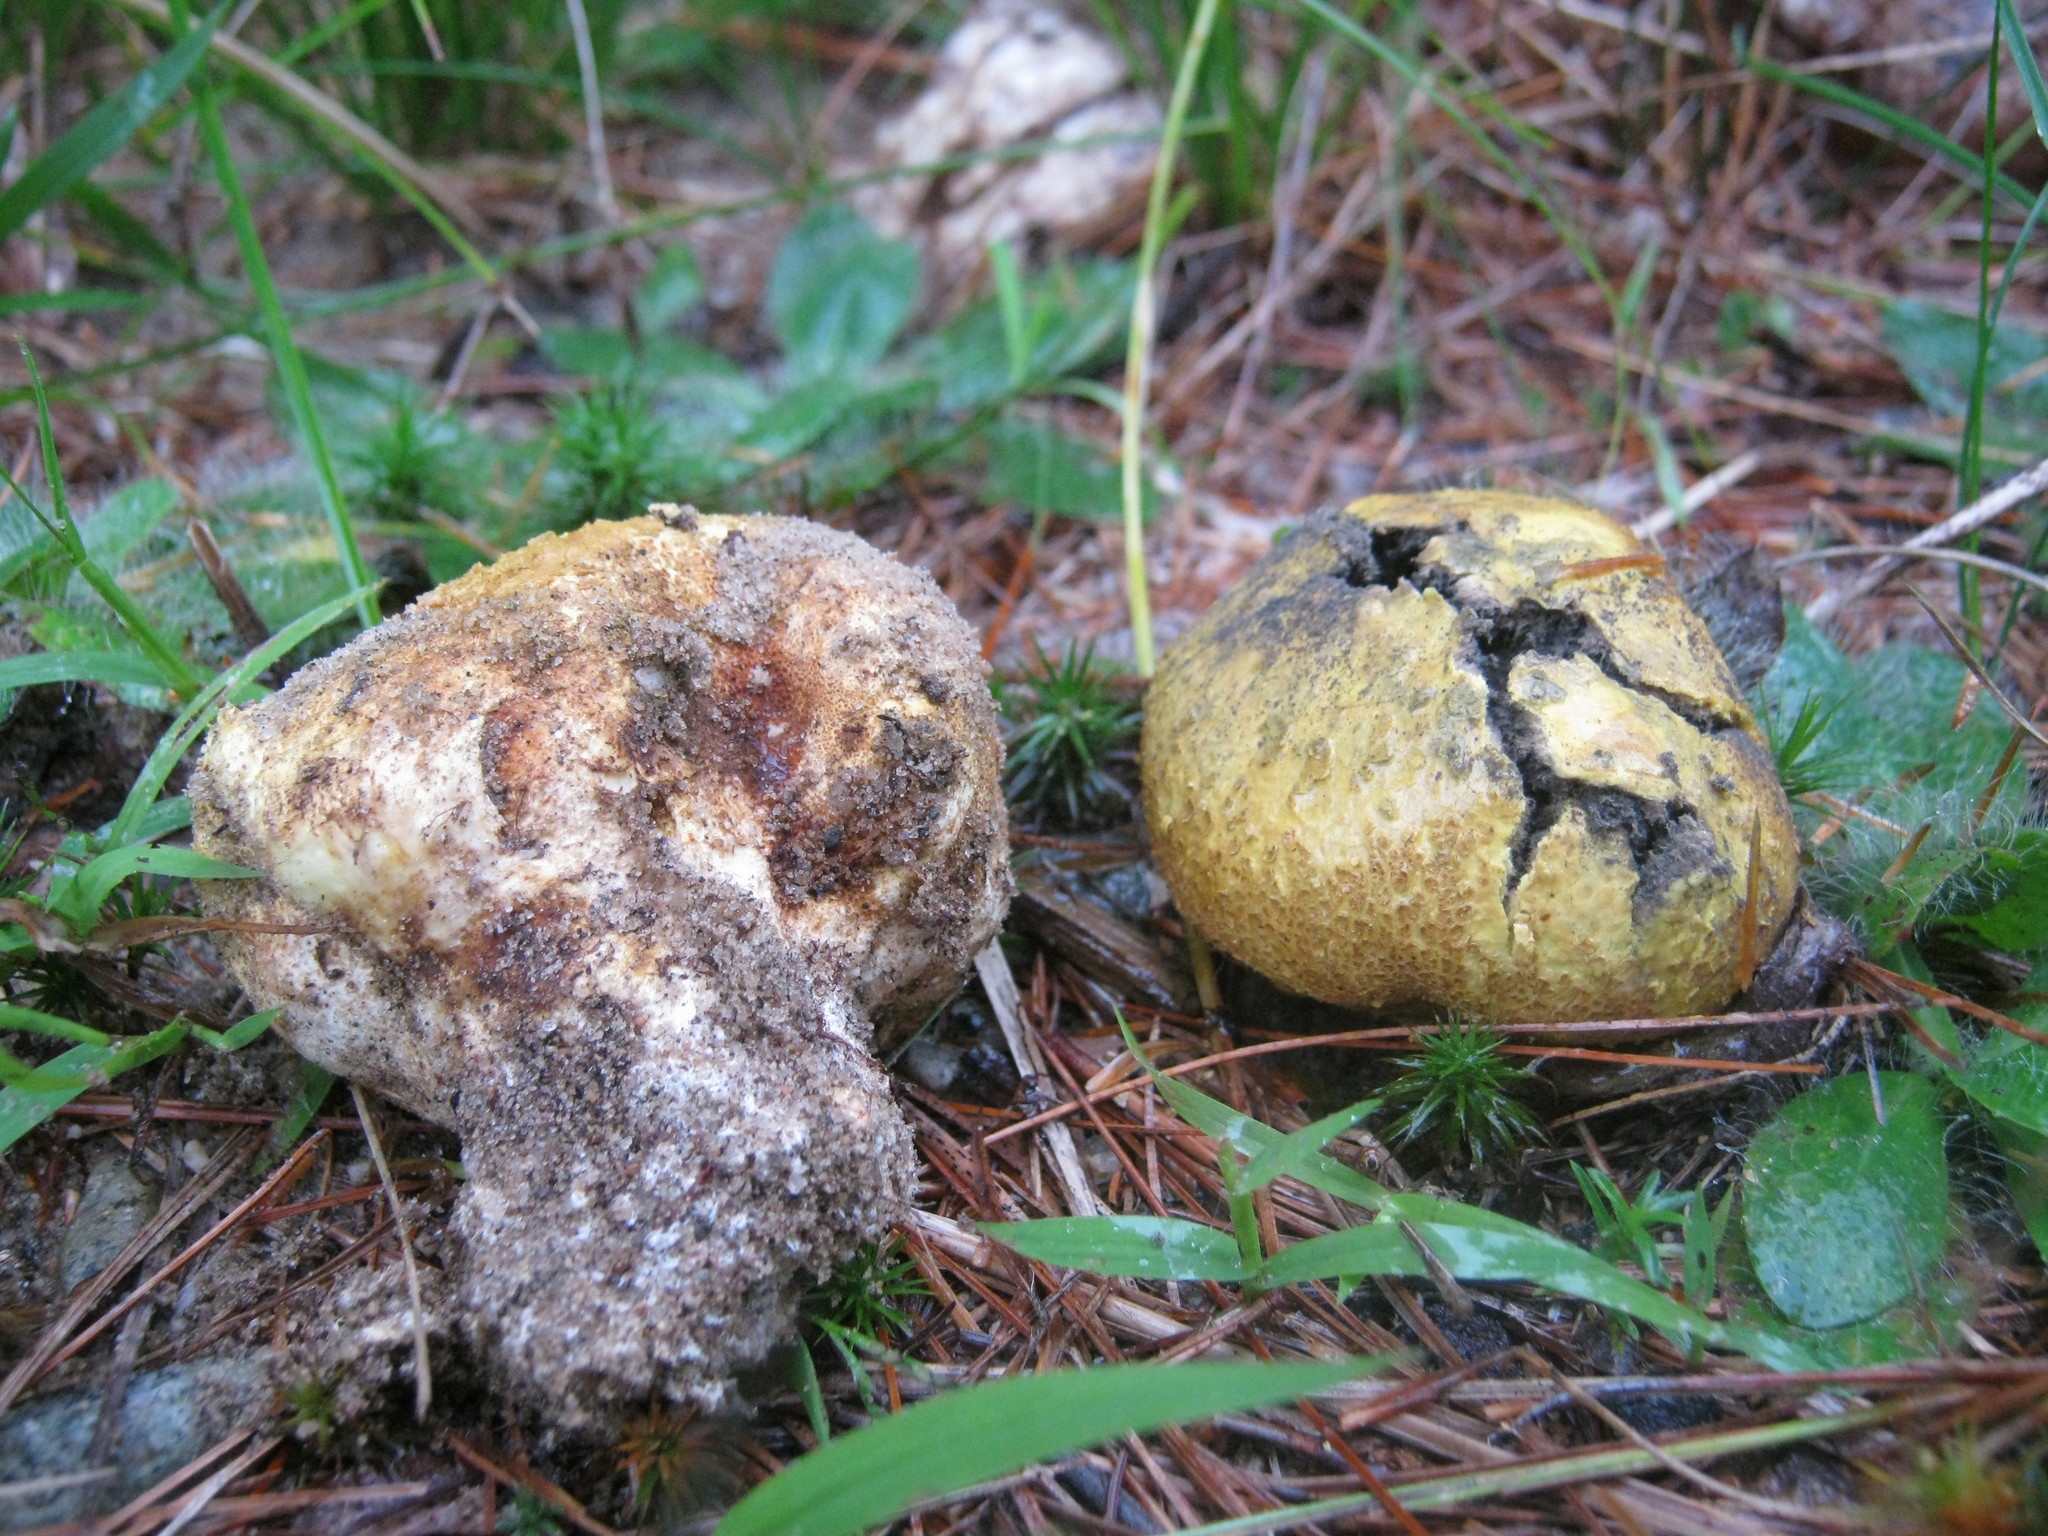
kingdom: Fungi
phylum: Basidiomycota
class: Agaricomycetes
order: Boletales
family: Sclerodermataceae
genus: Scleroderma
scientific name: Scleroderma meridionale
